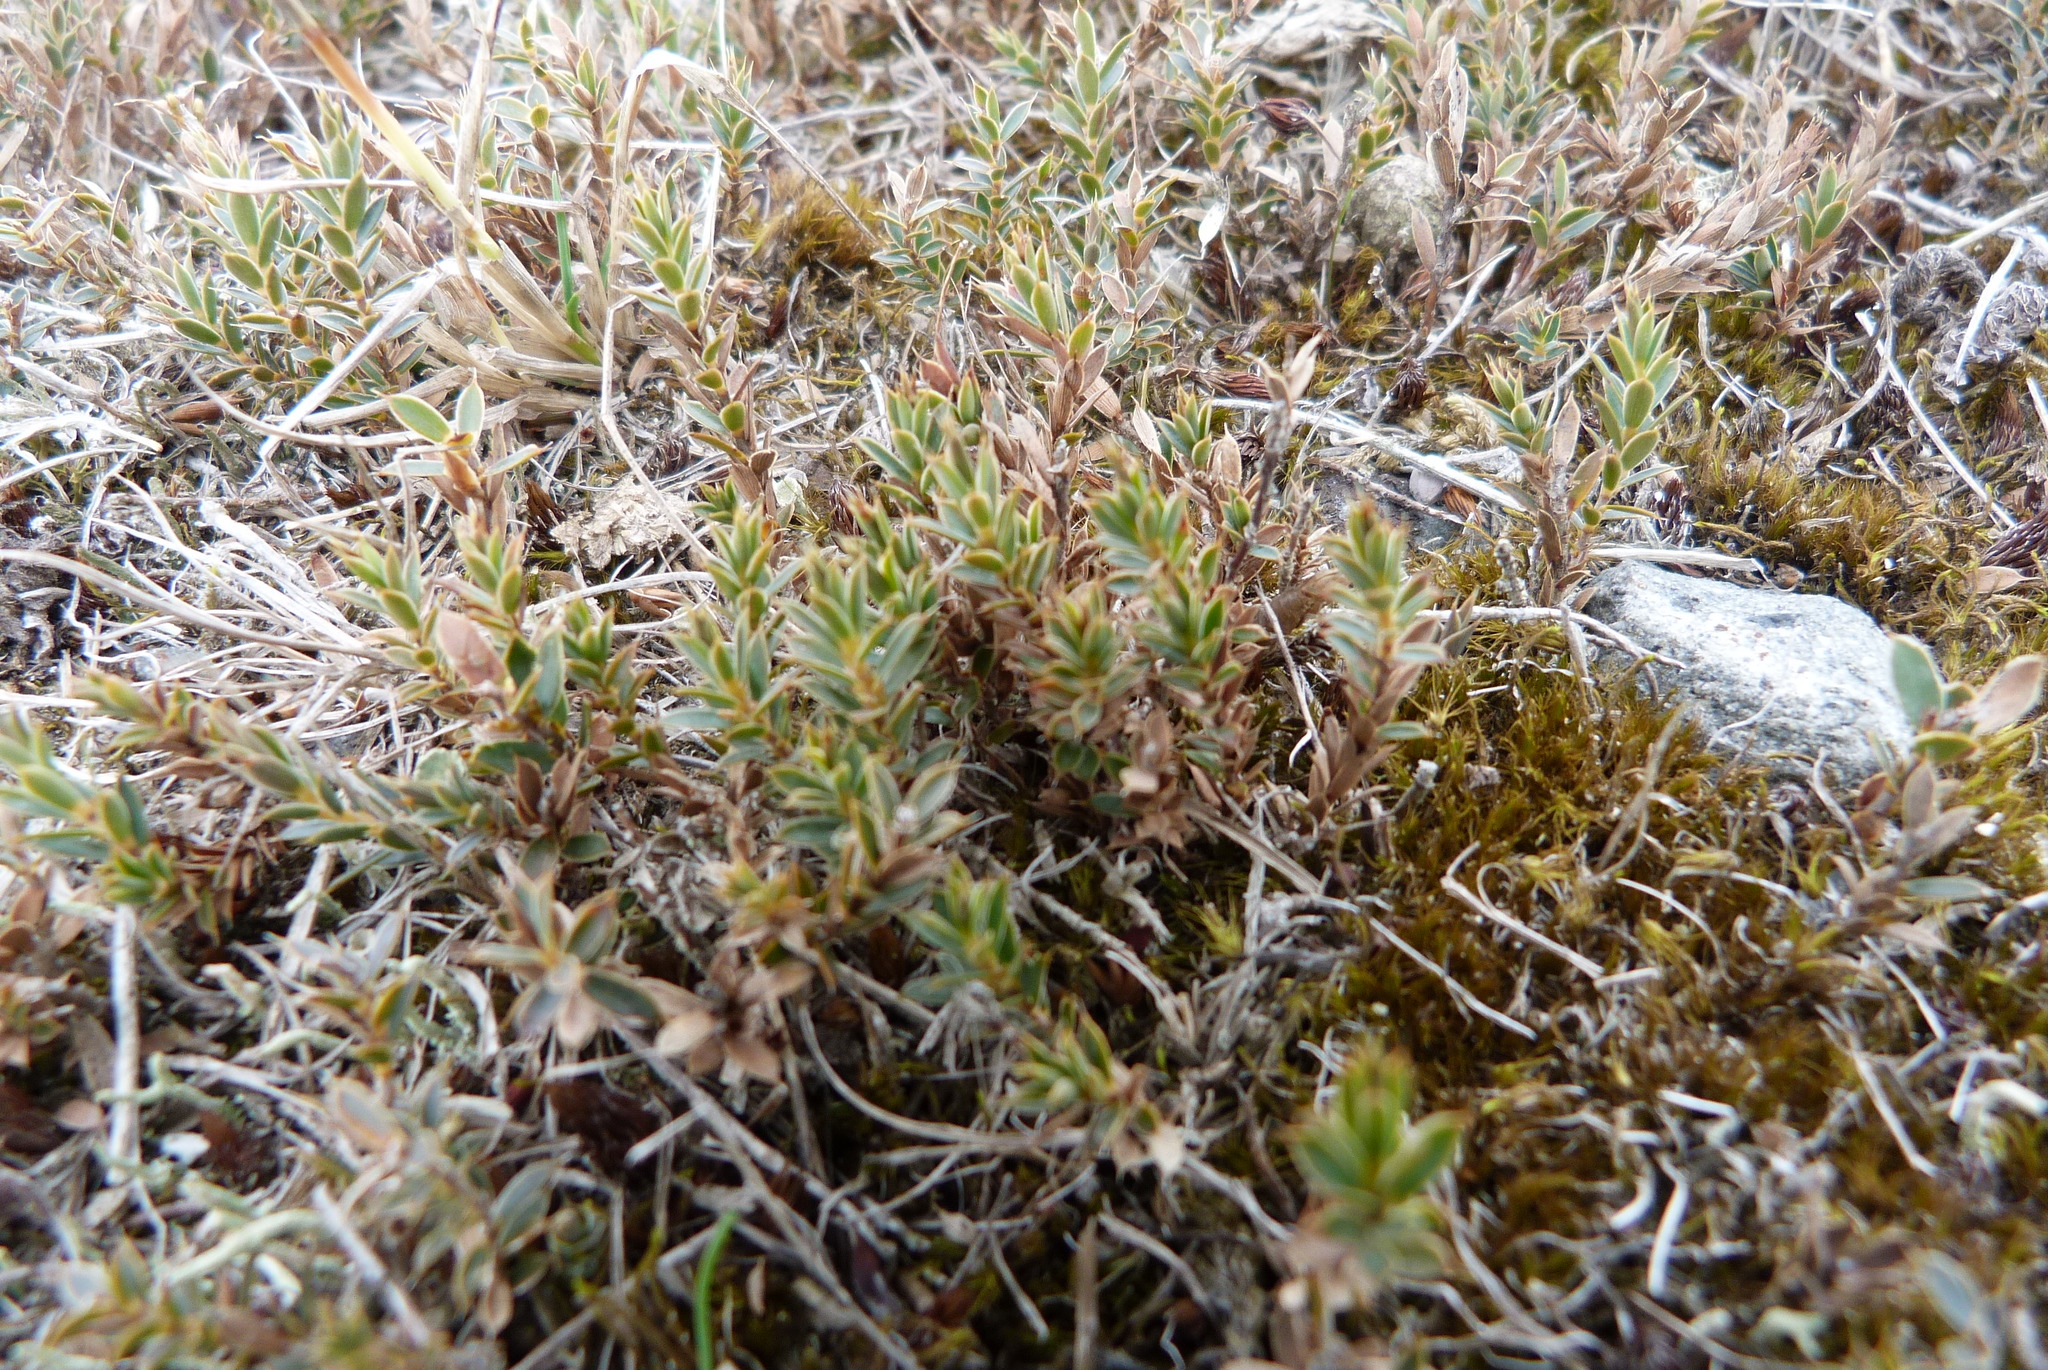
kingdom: Plantae
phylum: Tracheophyta
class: Magnoliopsida
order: Ericales
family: Ericaceae
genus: Styphelia
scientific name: Styphelia nesophila
